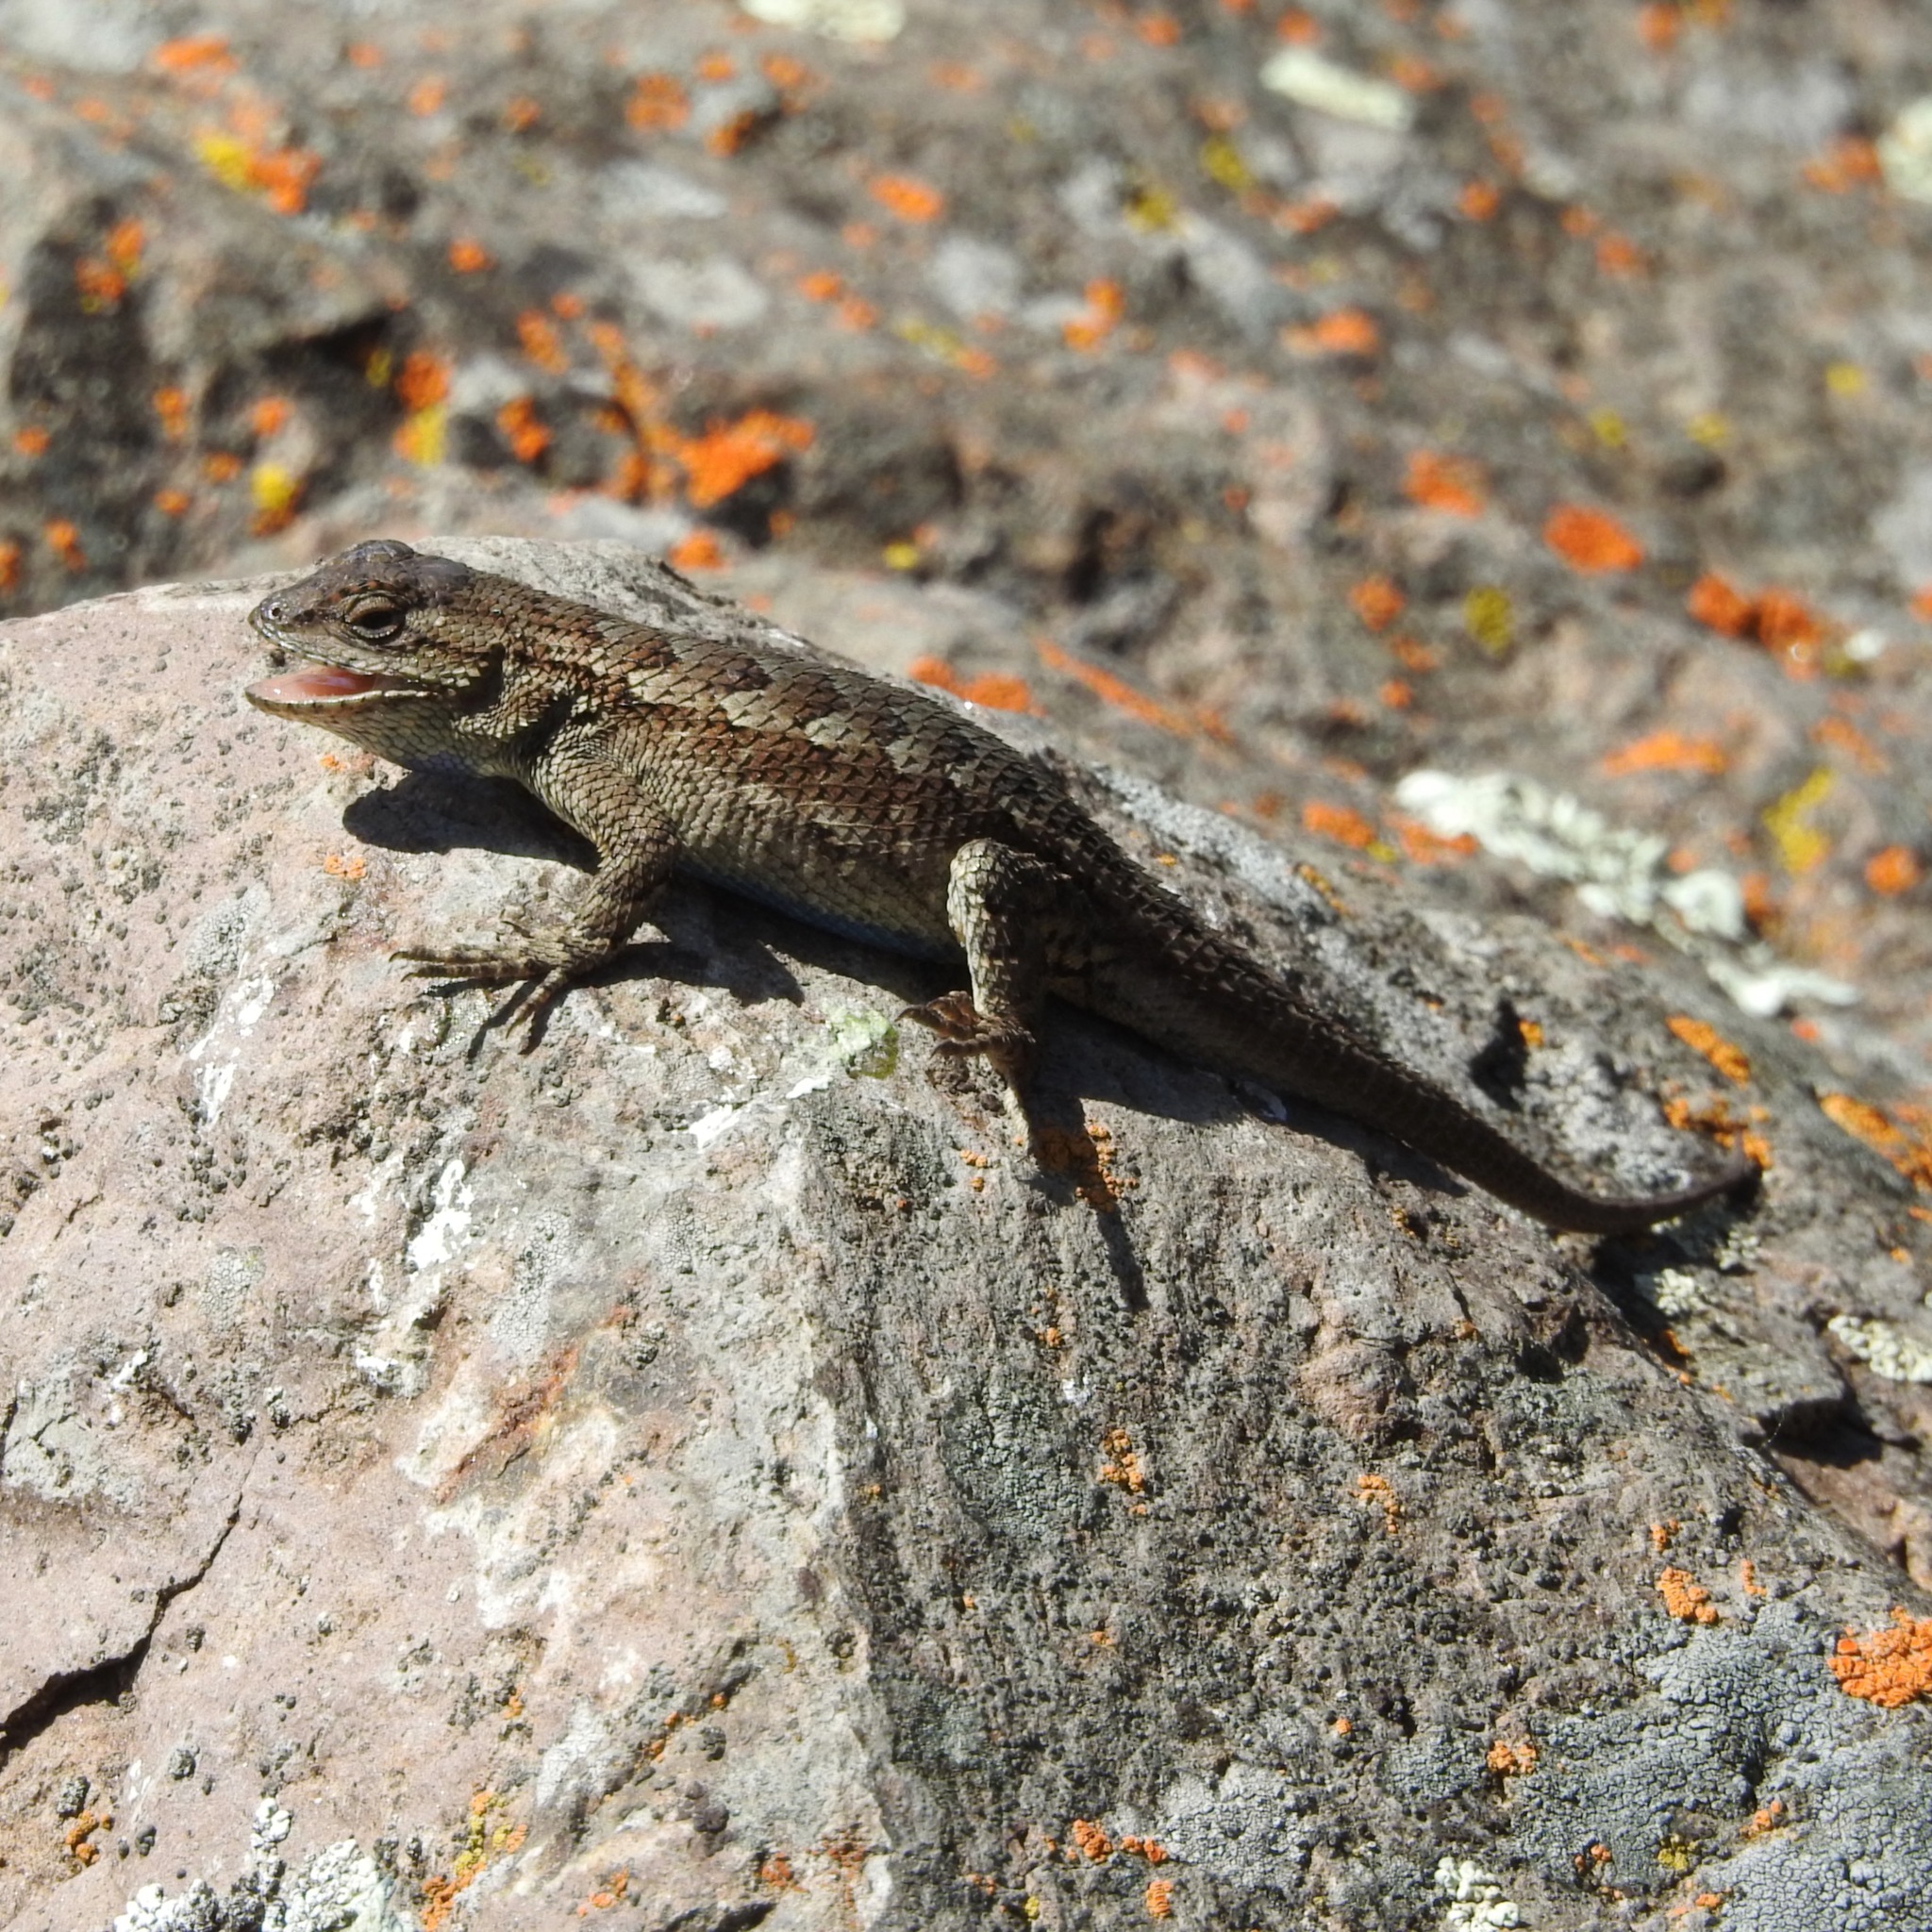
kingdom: Animalia
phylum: Chordata
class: Squamata
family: Phrynosomatidae
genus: Sceloporus
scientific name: Sceloporus occidentalis
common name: Western fence lizard
